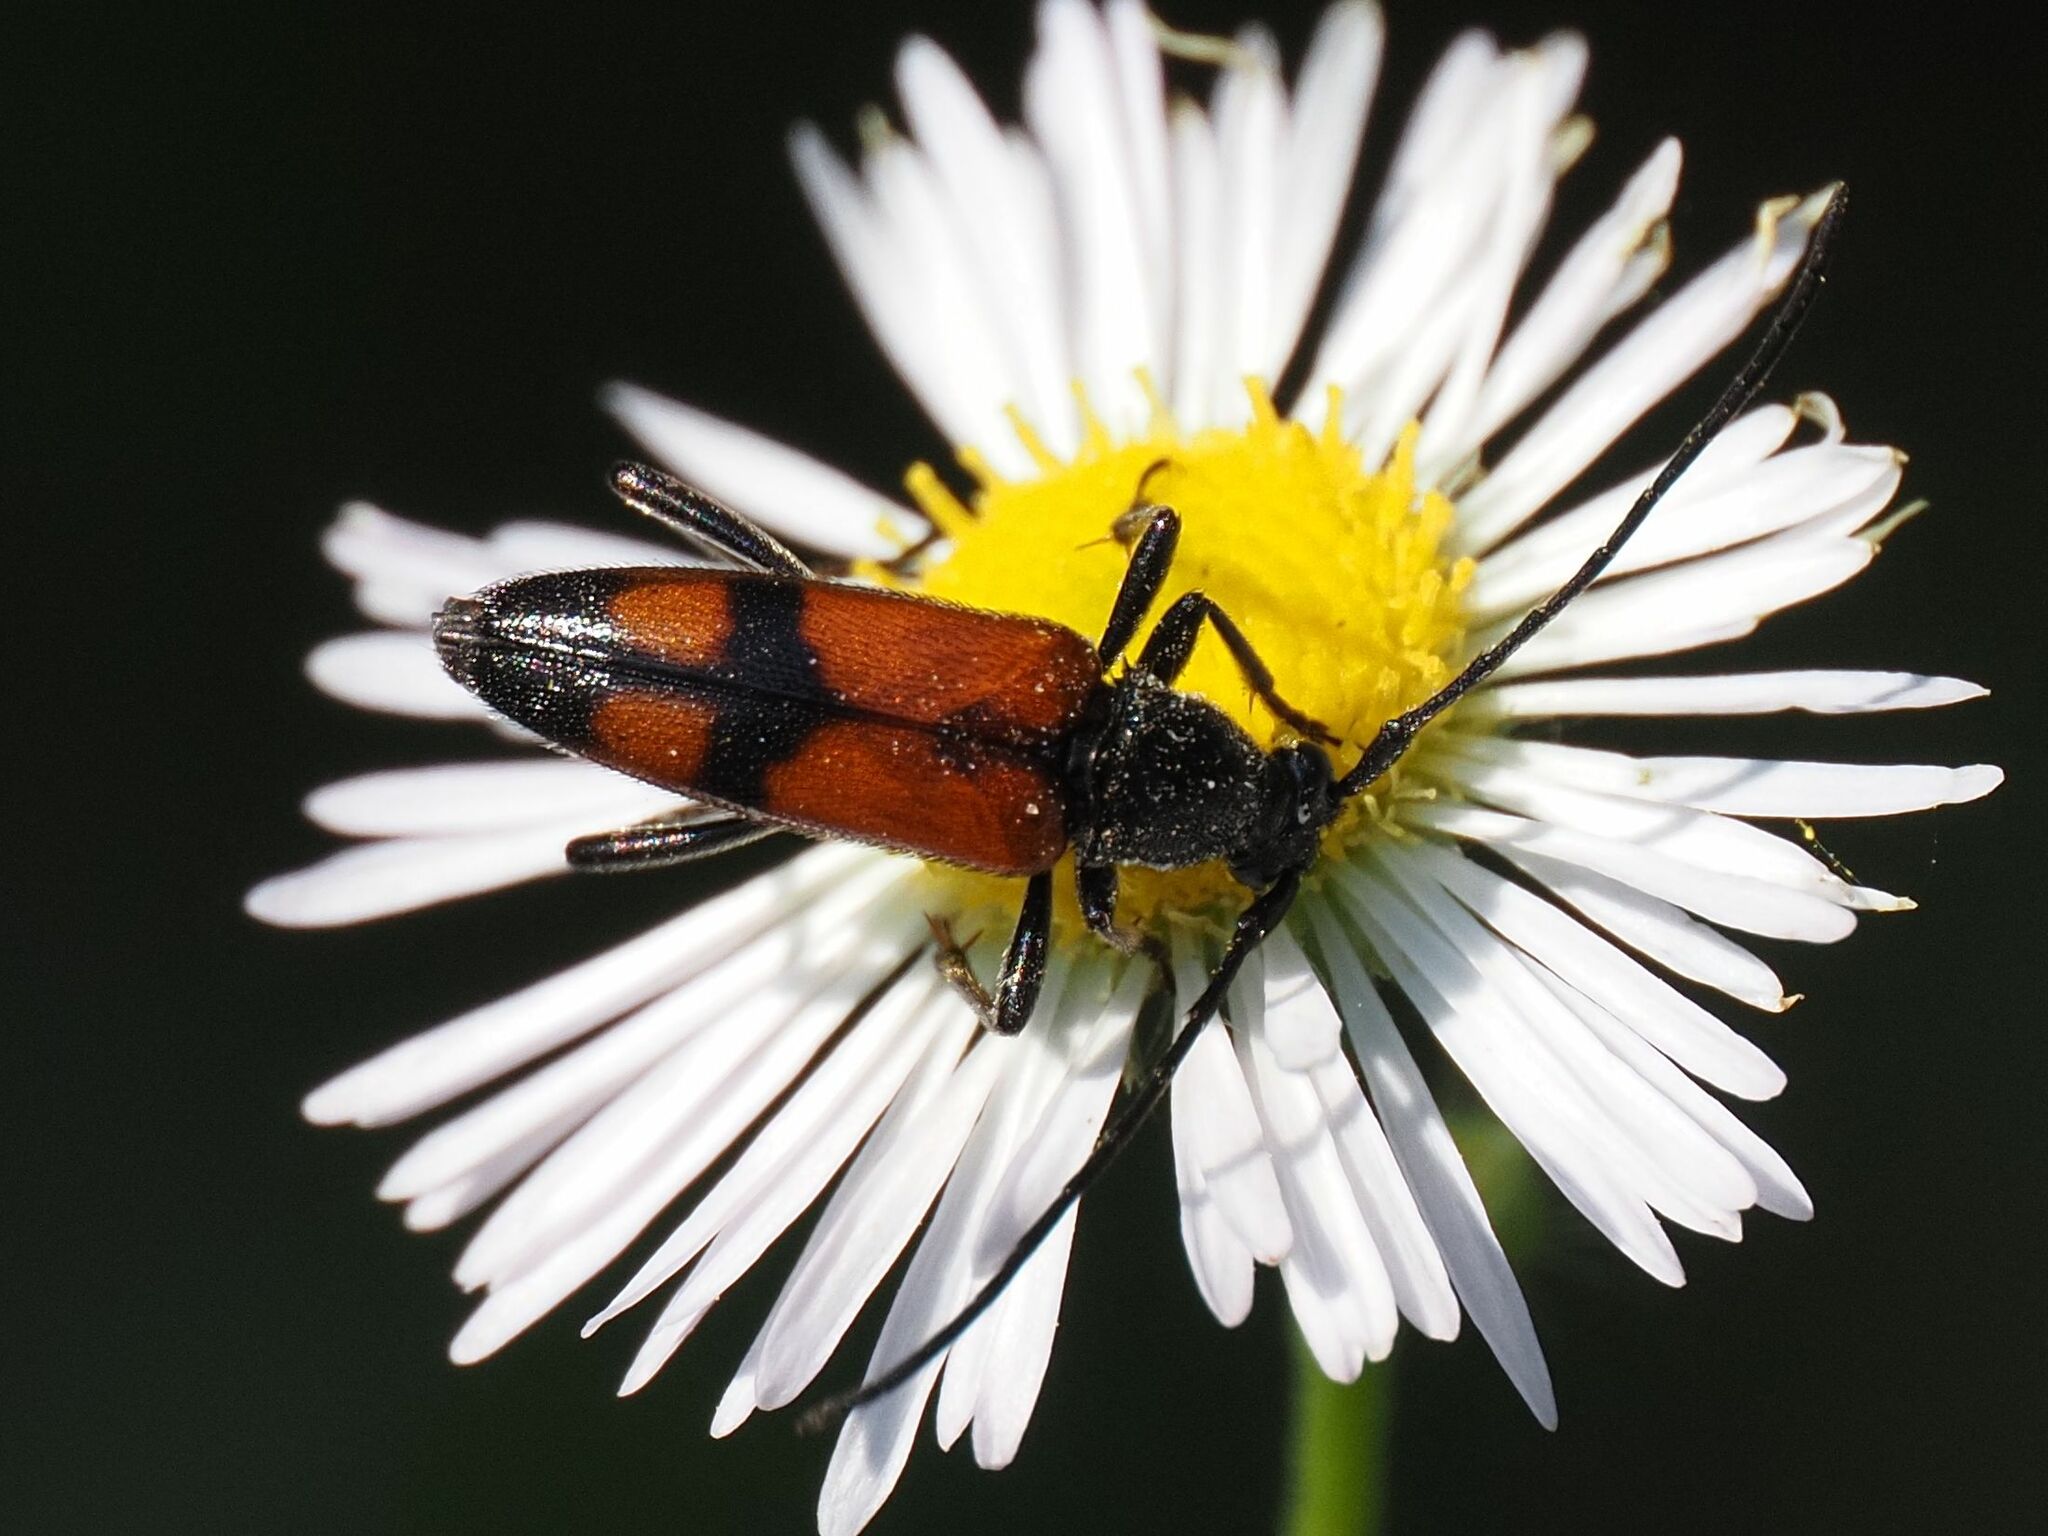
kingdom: Animalia
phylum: Arthropoda
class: Insecta
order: Coleoptera
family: Cerambycidae
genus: Stenurella
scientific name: Stenurella bifasciata
